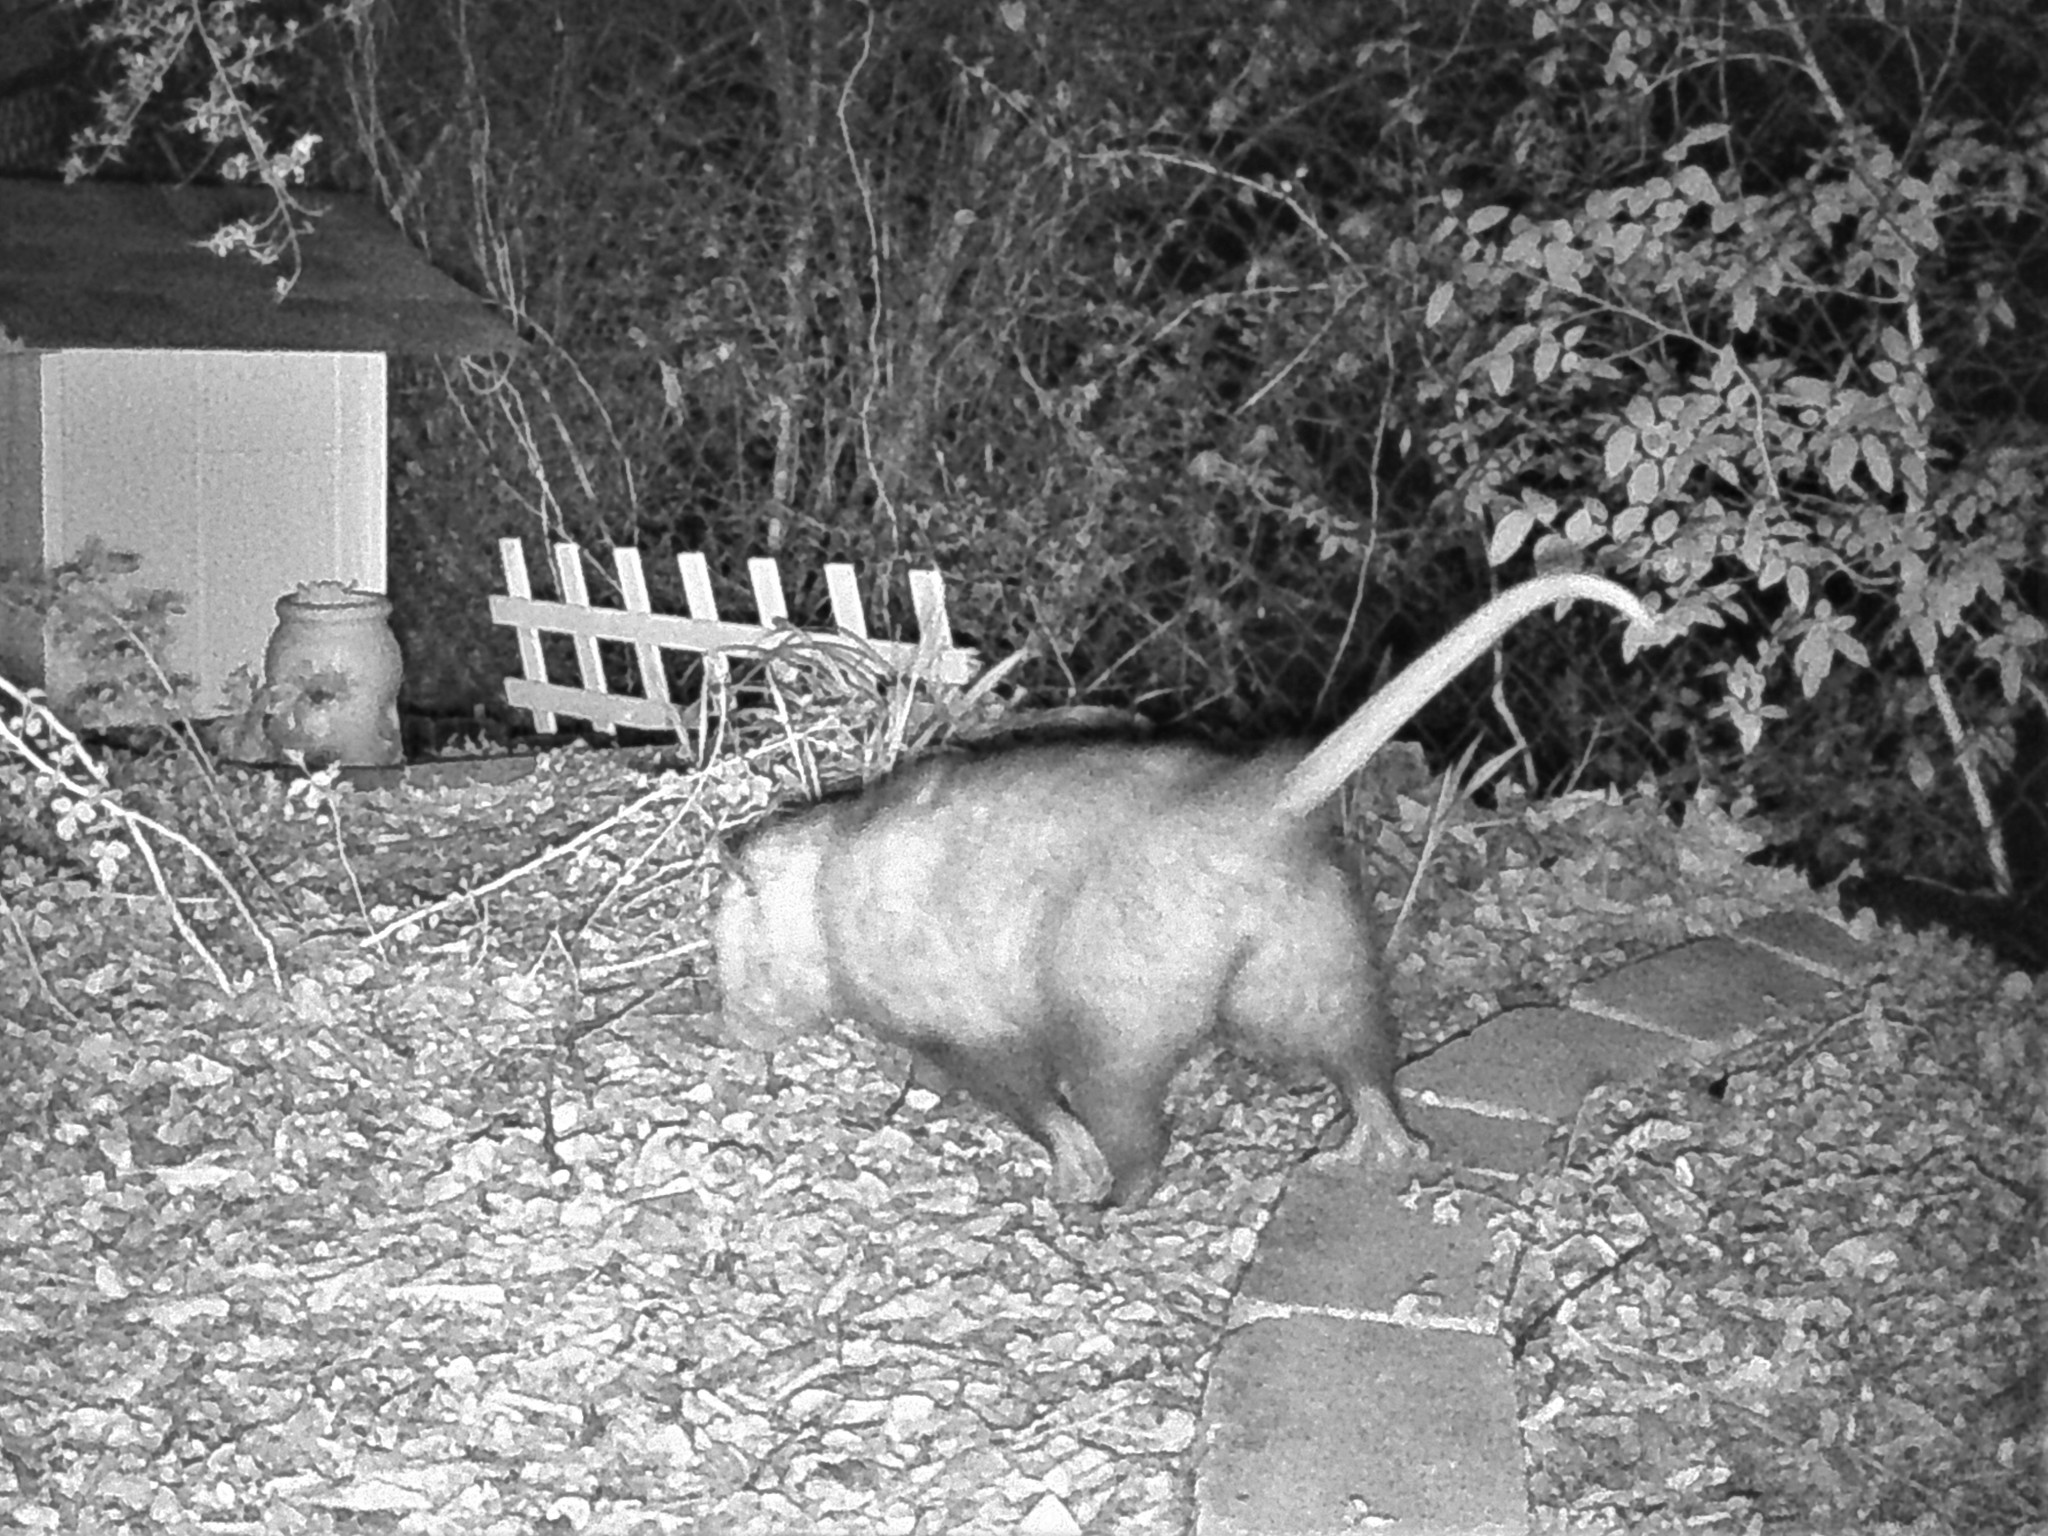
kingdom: Animalia
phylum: Chordata
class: Mammalia
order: Didelphimorphia
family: Didelphidae
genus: Didelphis
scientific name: Didelphis virginiana
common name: Virginia opossum
